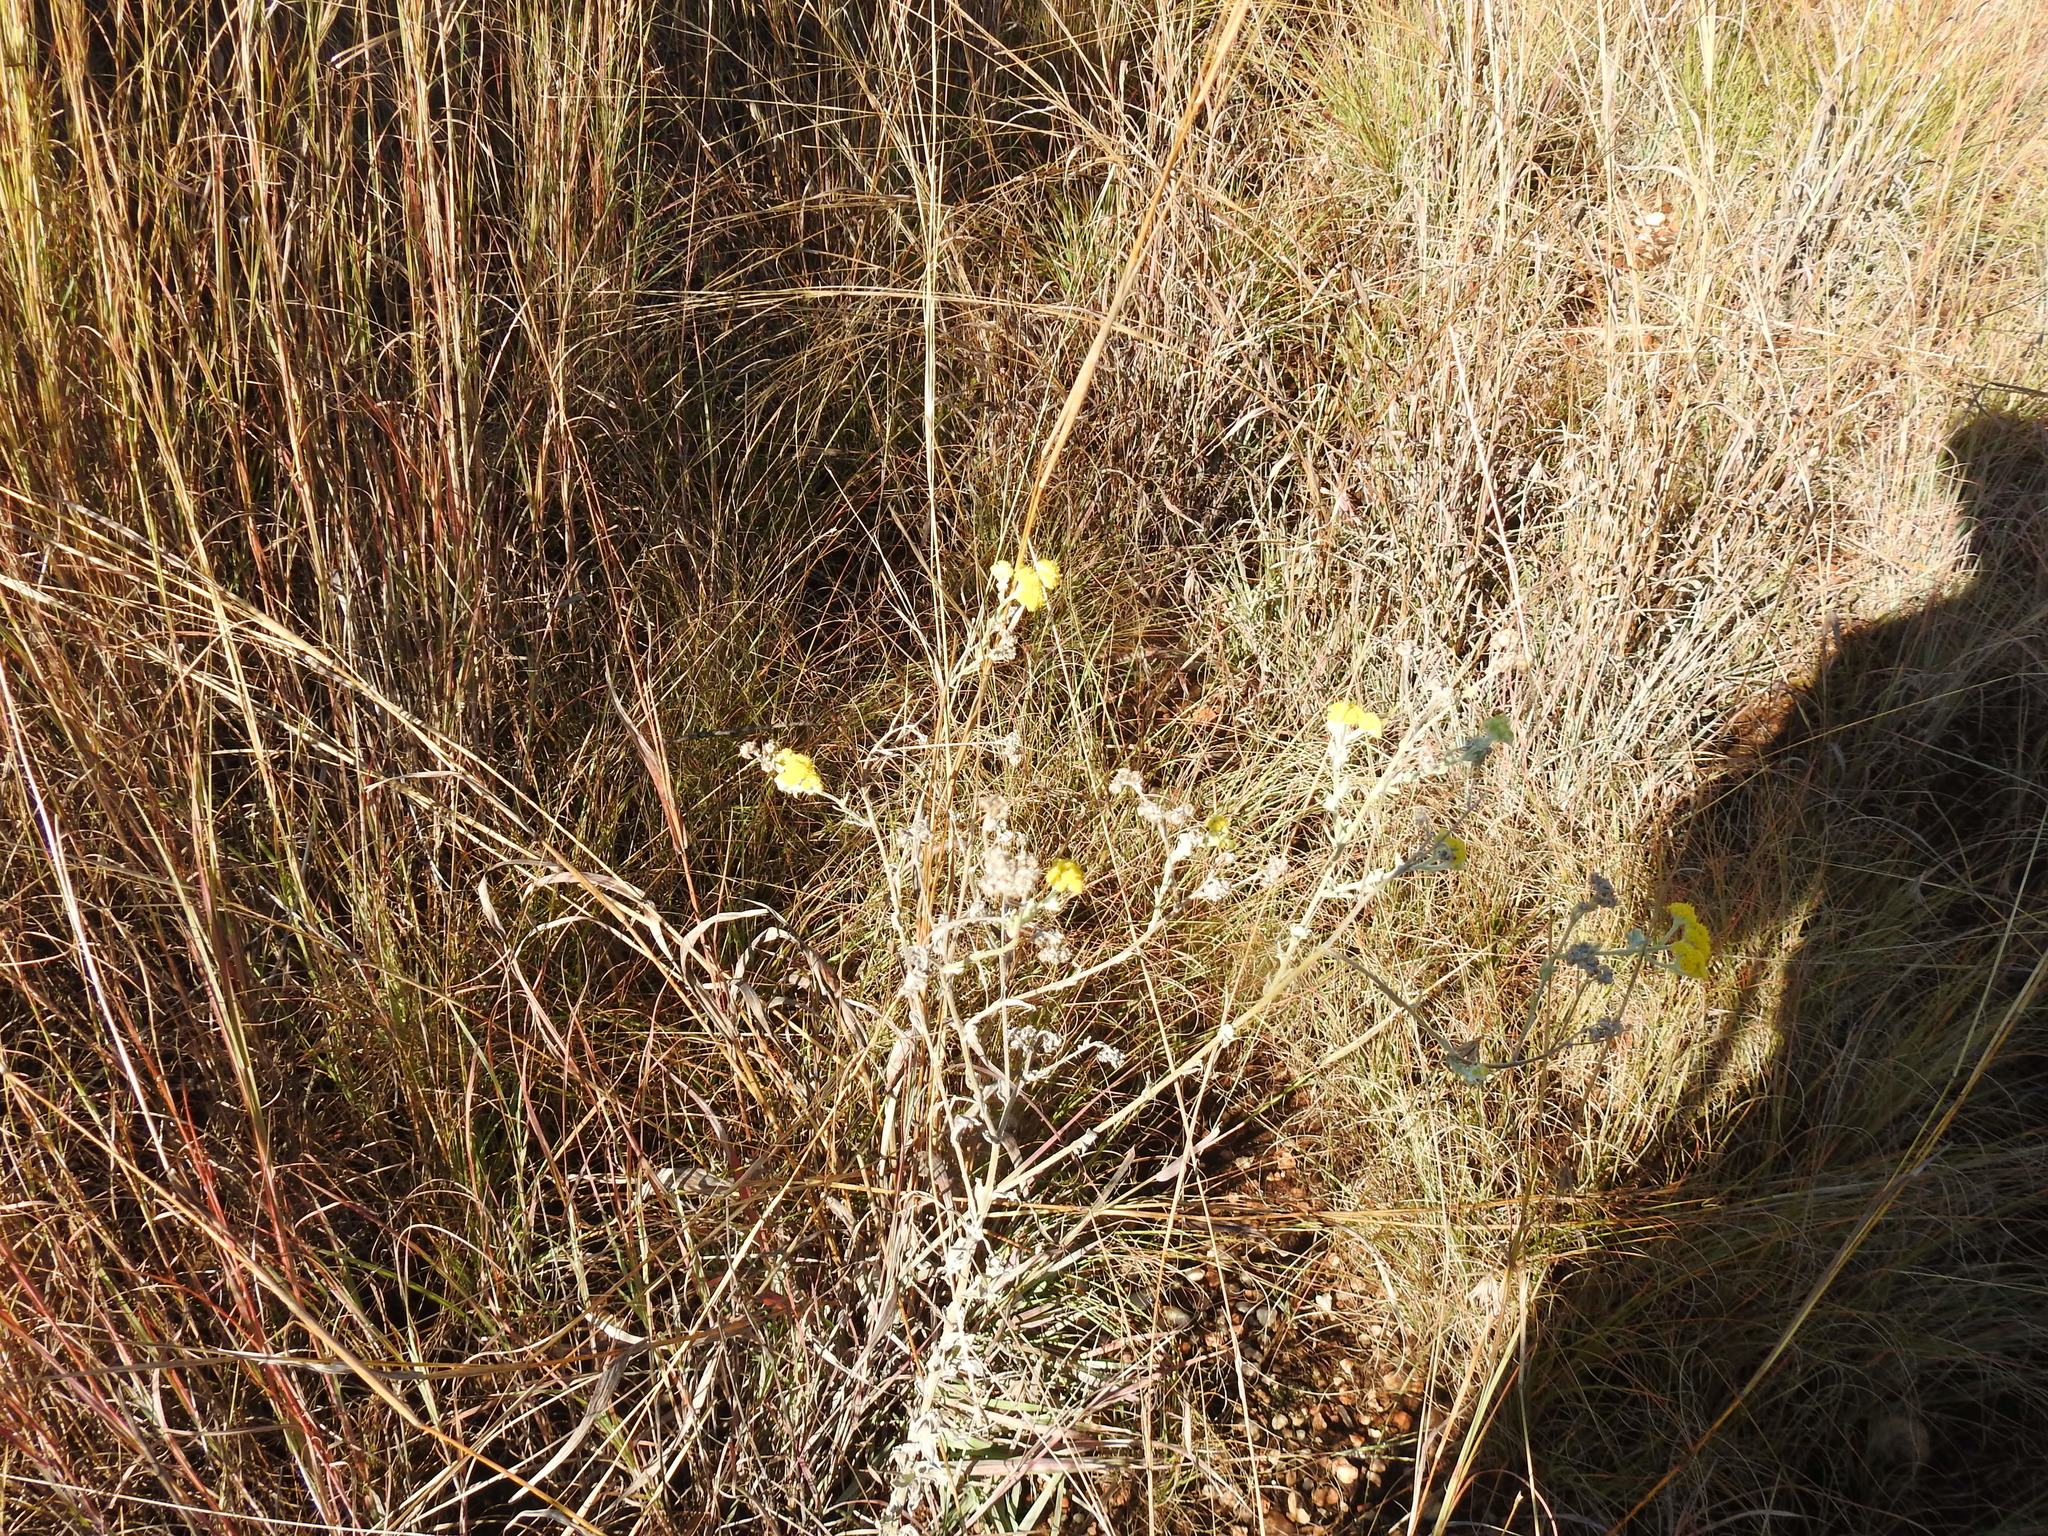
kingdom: Plantae
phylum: Tracheophyta
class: Magnoliopsida
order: Asterales
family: Asteraceae
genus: Nidorella
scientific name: Nidorella hottentotica
